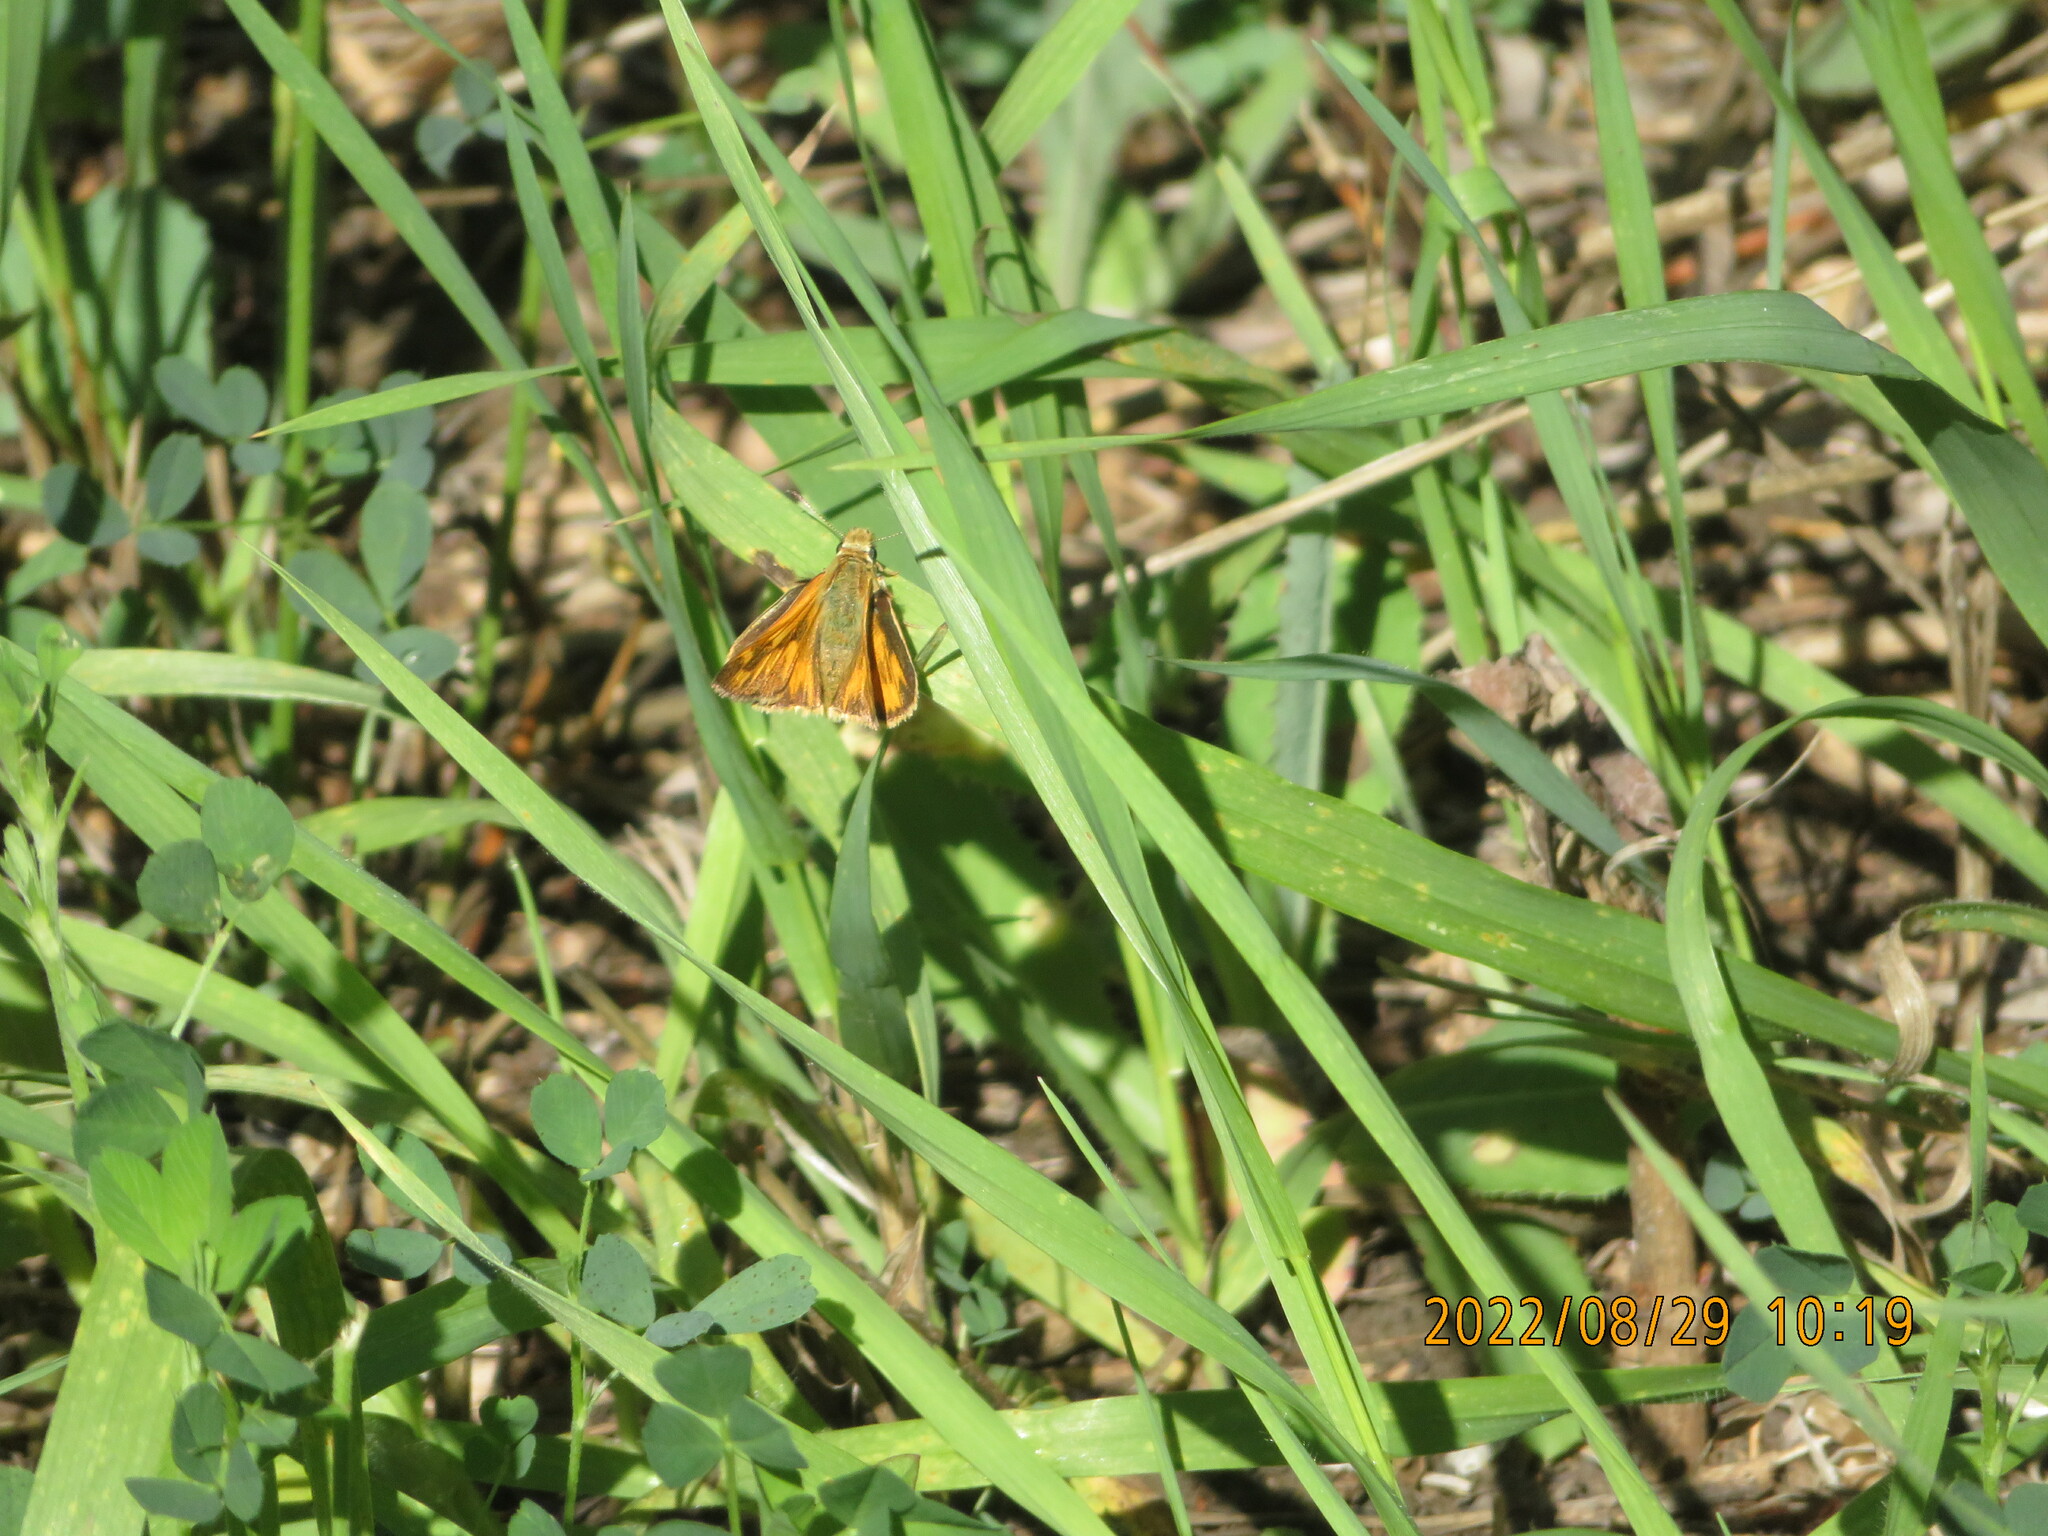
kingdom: Animalia
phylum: Arthropoda
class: Insecta
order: Lepidoptera
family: Hesperiidae
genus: Ochlodes
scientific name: Ochlodes sylvanoides
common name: Woodland skipper
